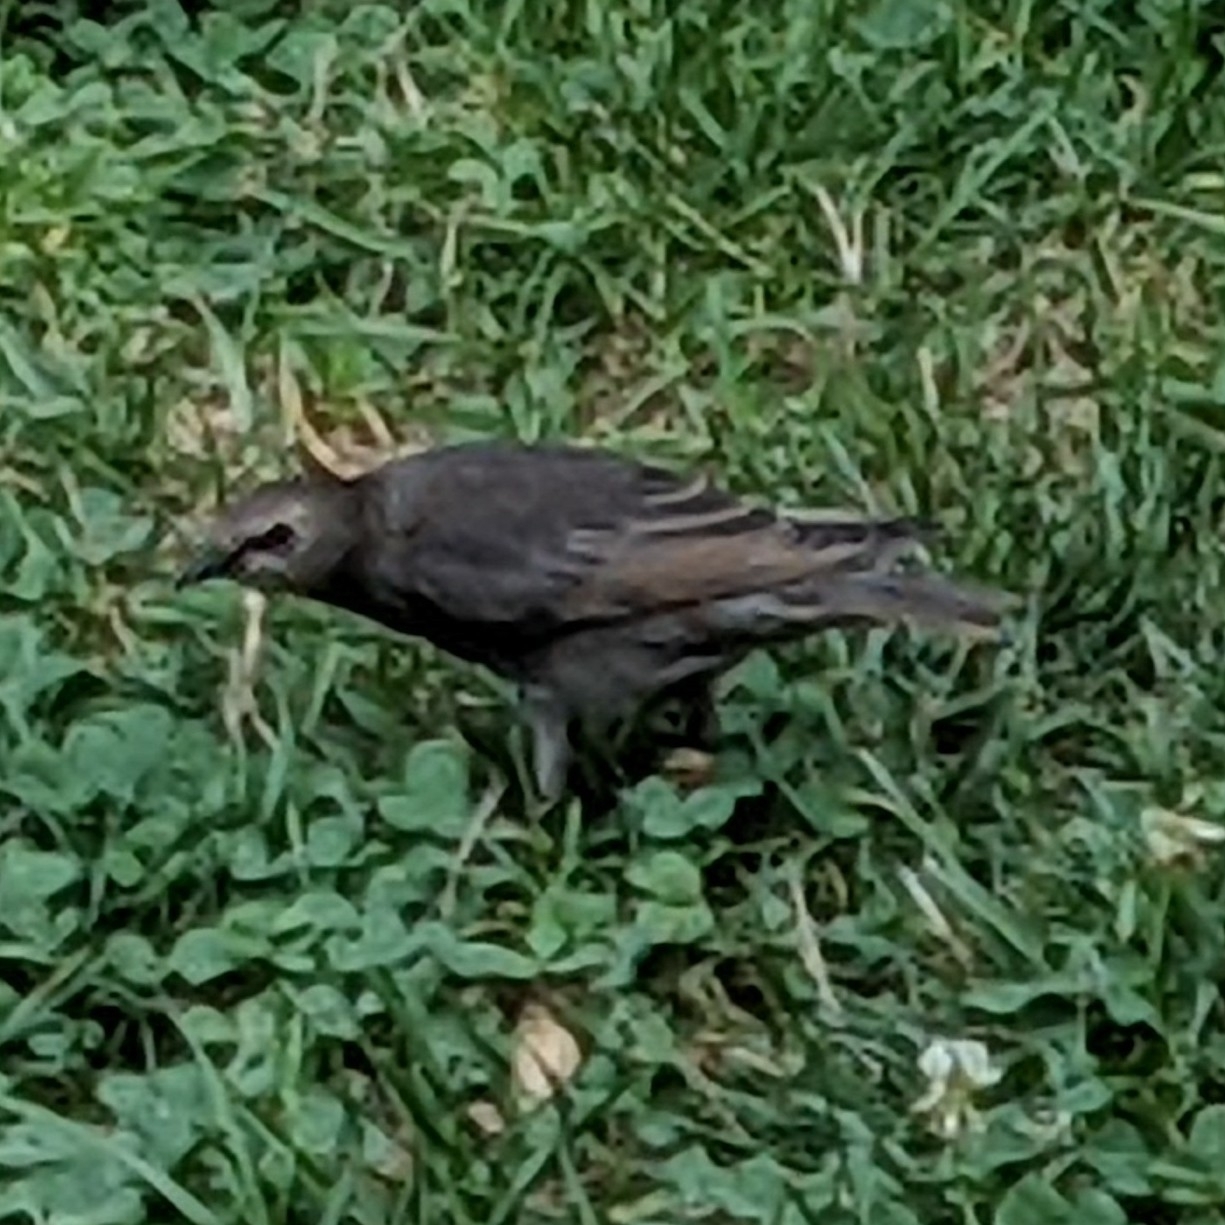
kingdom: Animalia
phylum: Chordata
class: Aves
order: Passeriformes
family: Sturnidae
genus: Sturnus
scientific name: Sturnus vulgaris
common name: Common starling
